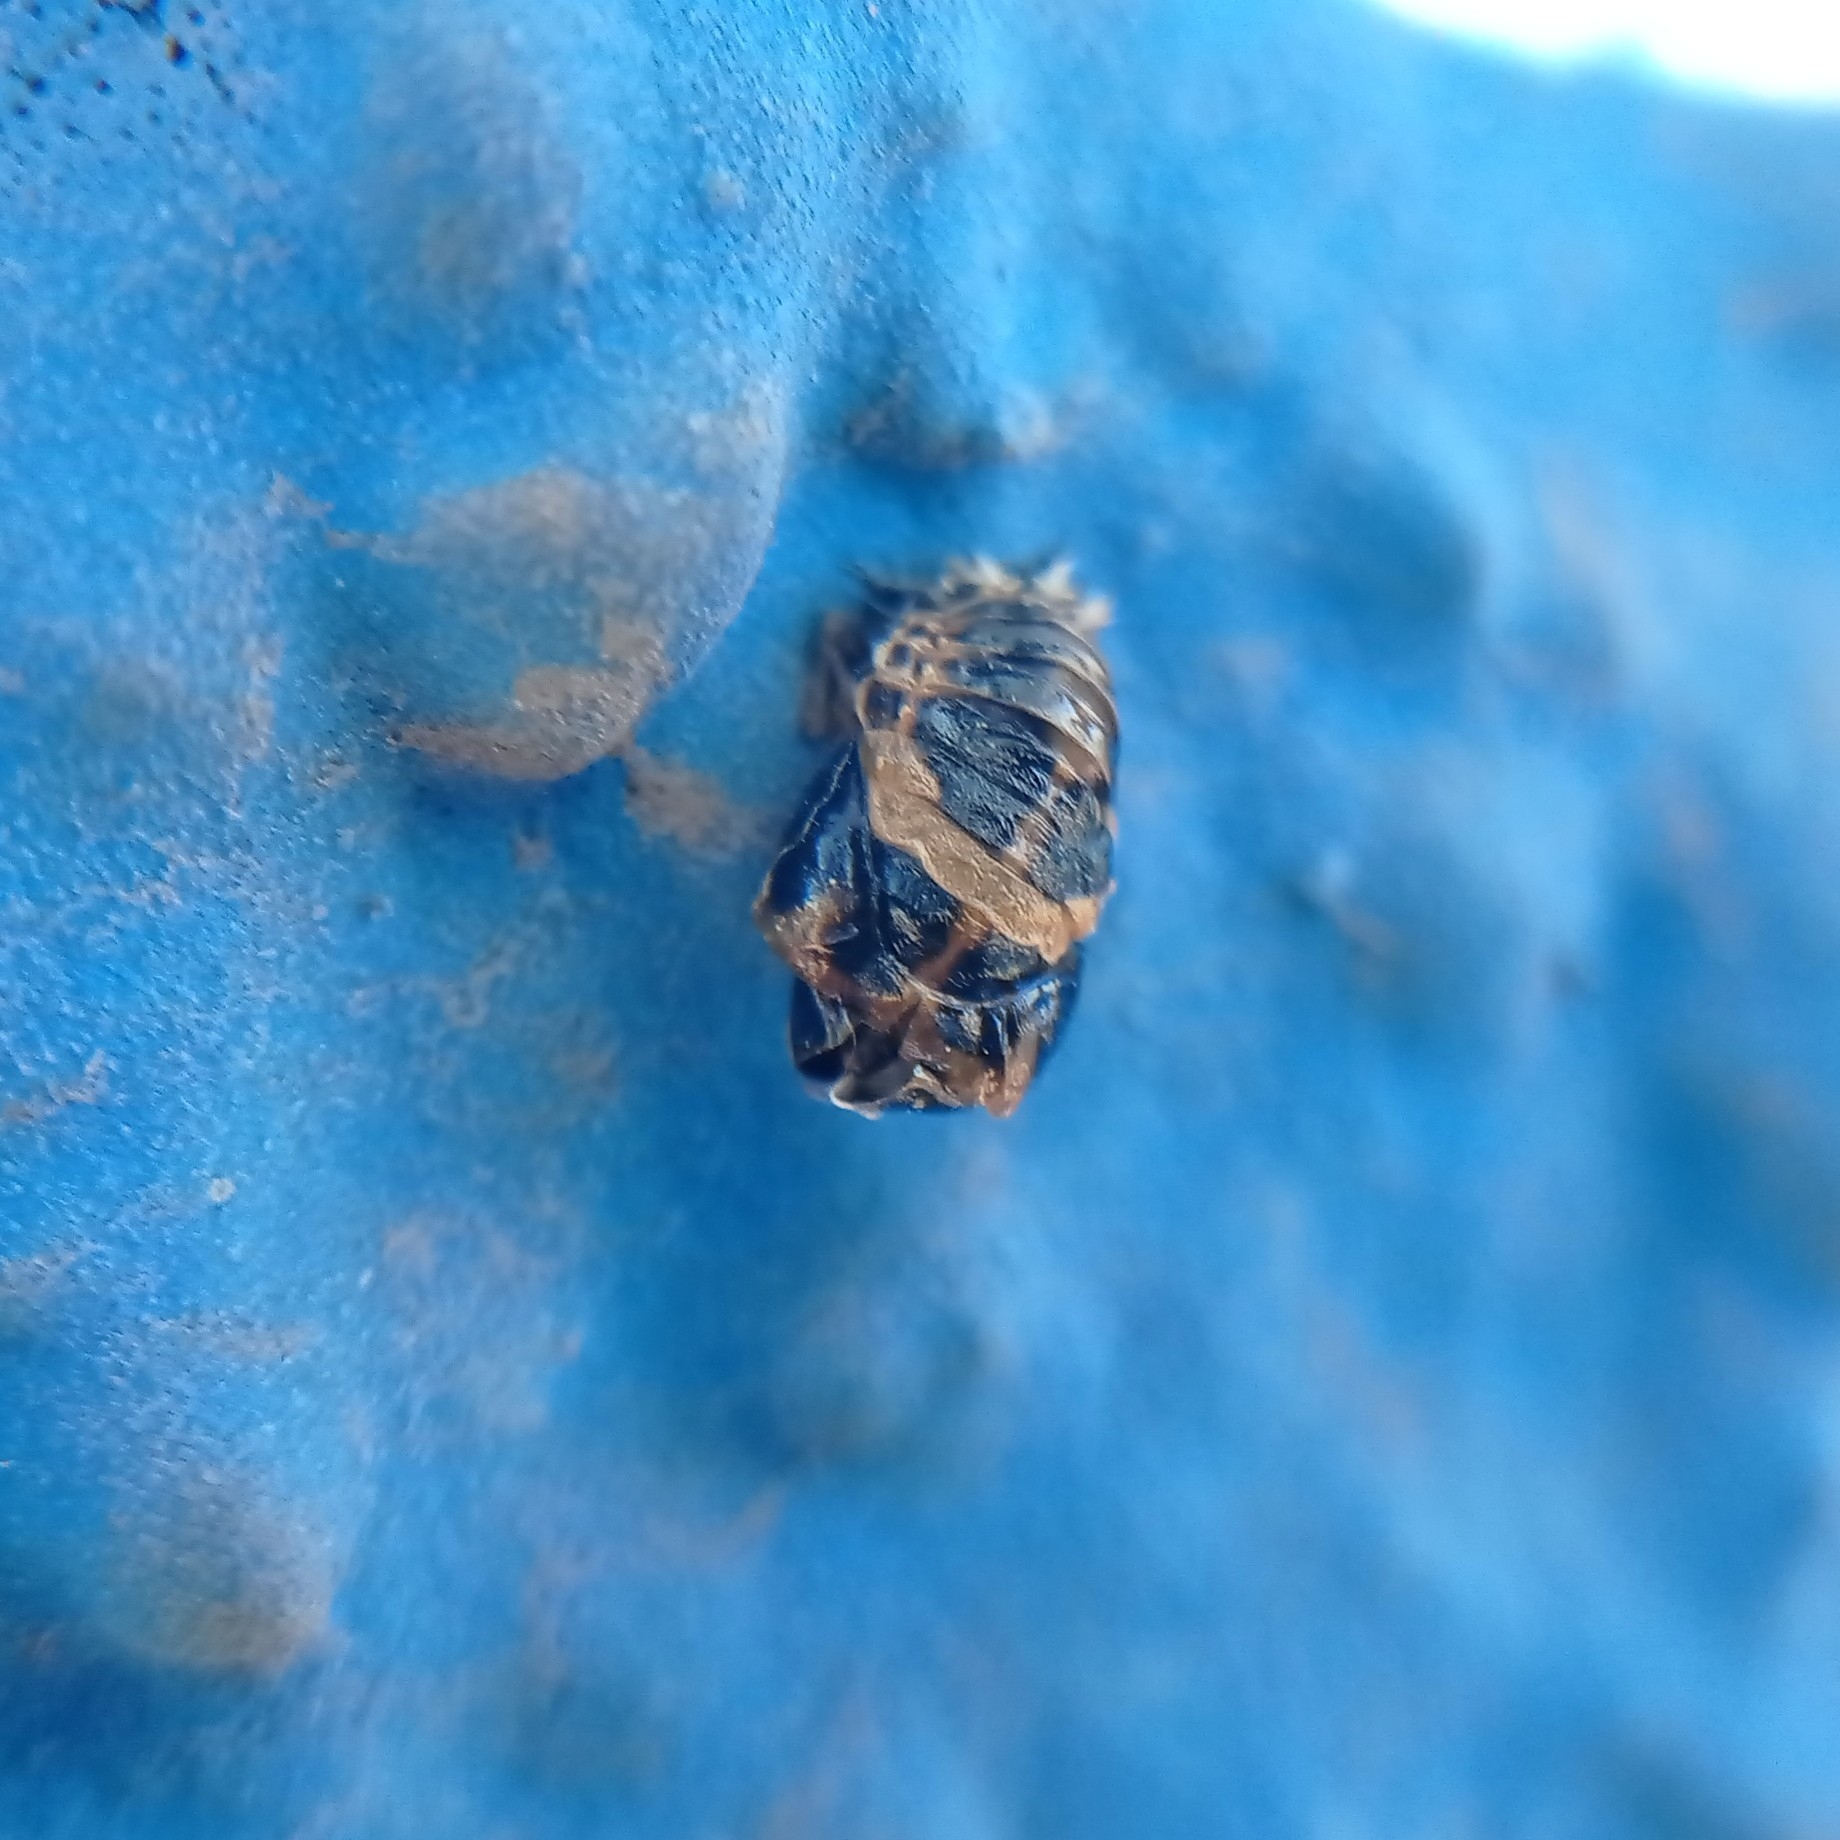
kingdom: Animalia
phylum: Arthropoda
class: Insecta
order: Coleoptera
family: Coccinellidae
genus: Harmonia
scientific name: Harmonia axyridis
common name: Harlequin ladybird
